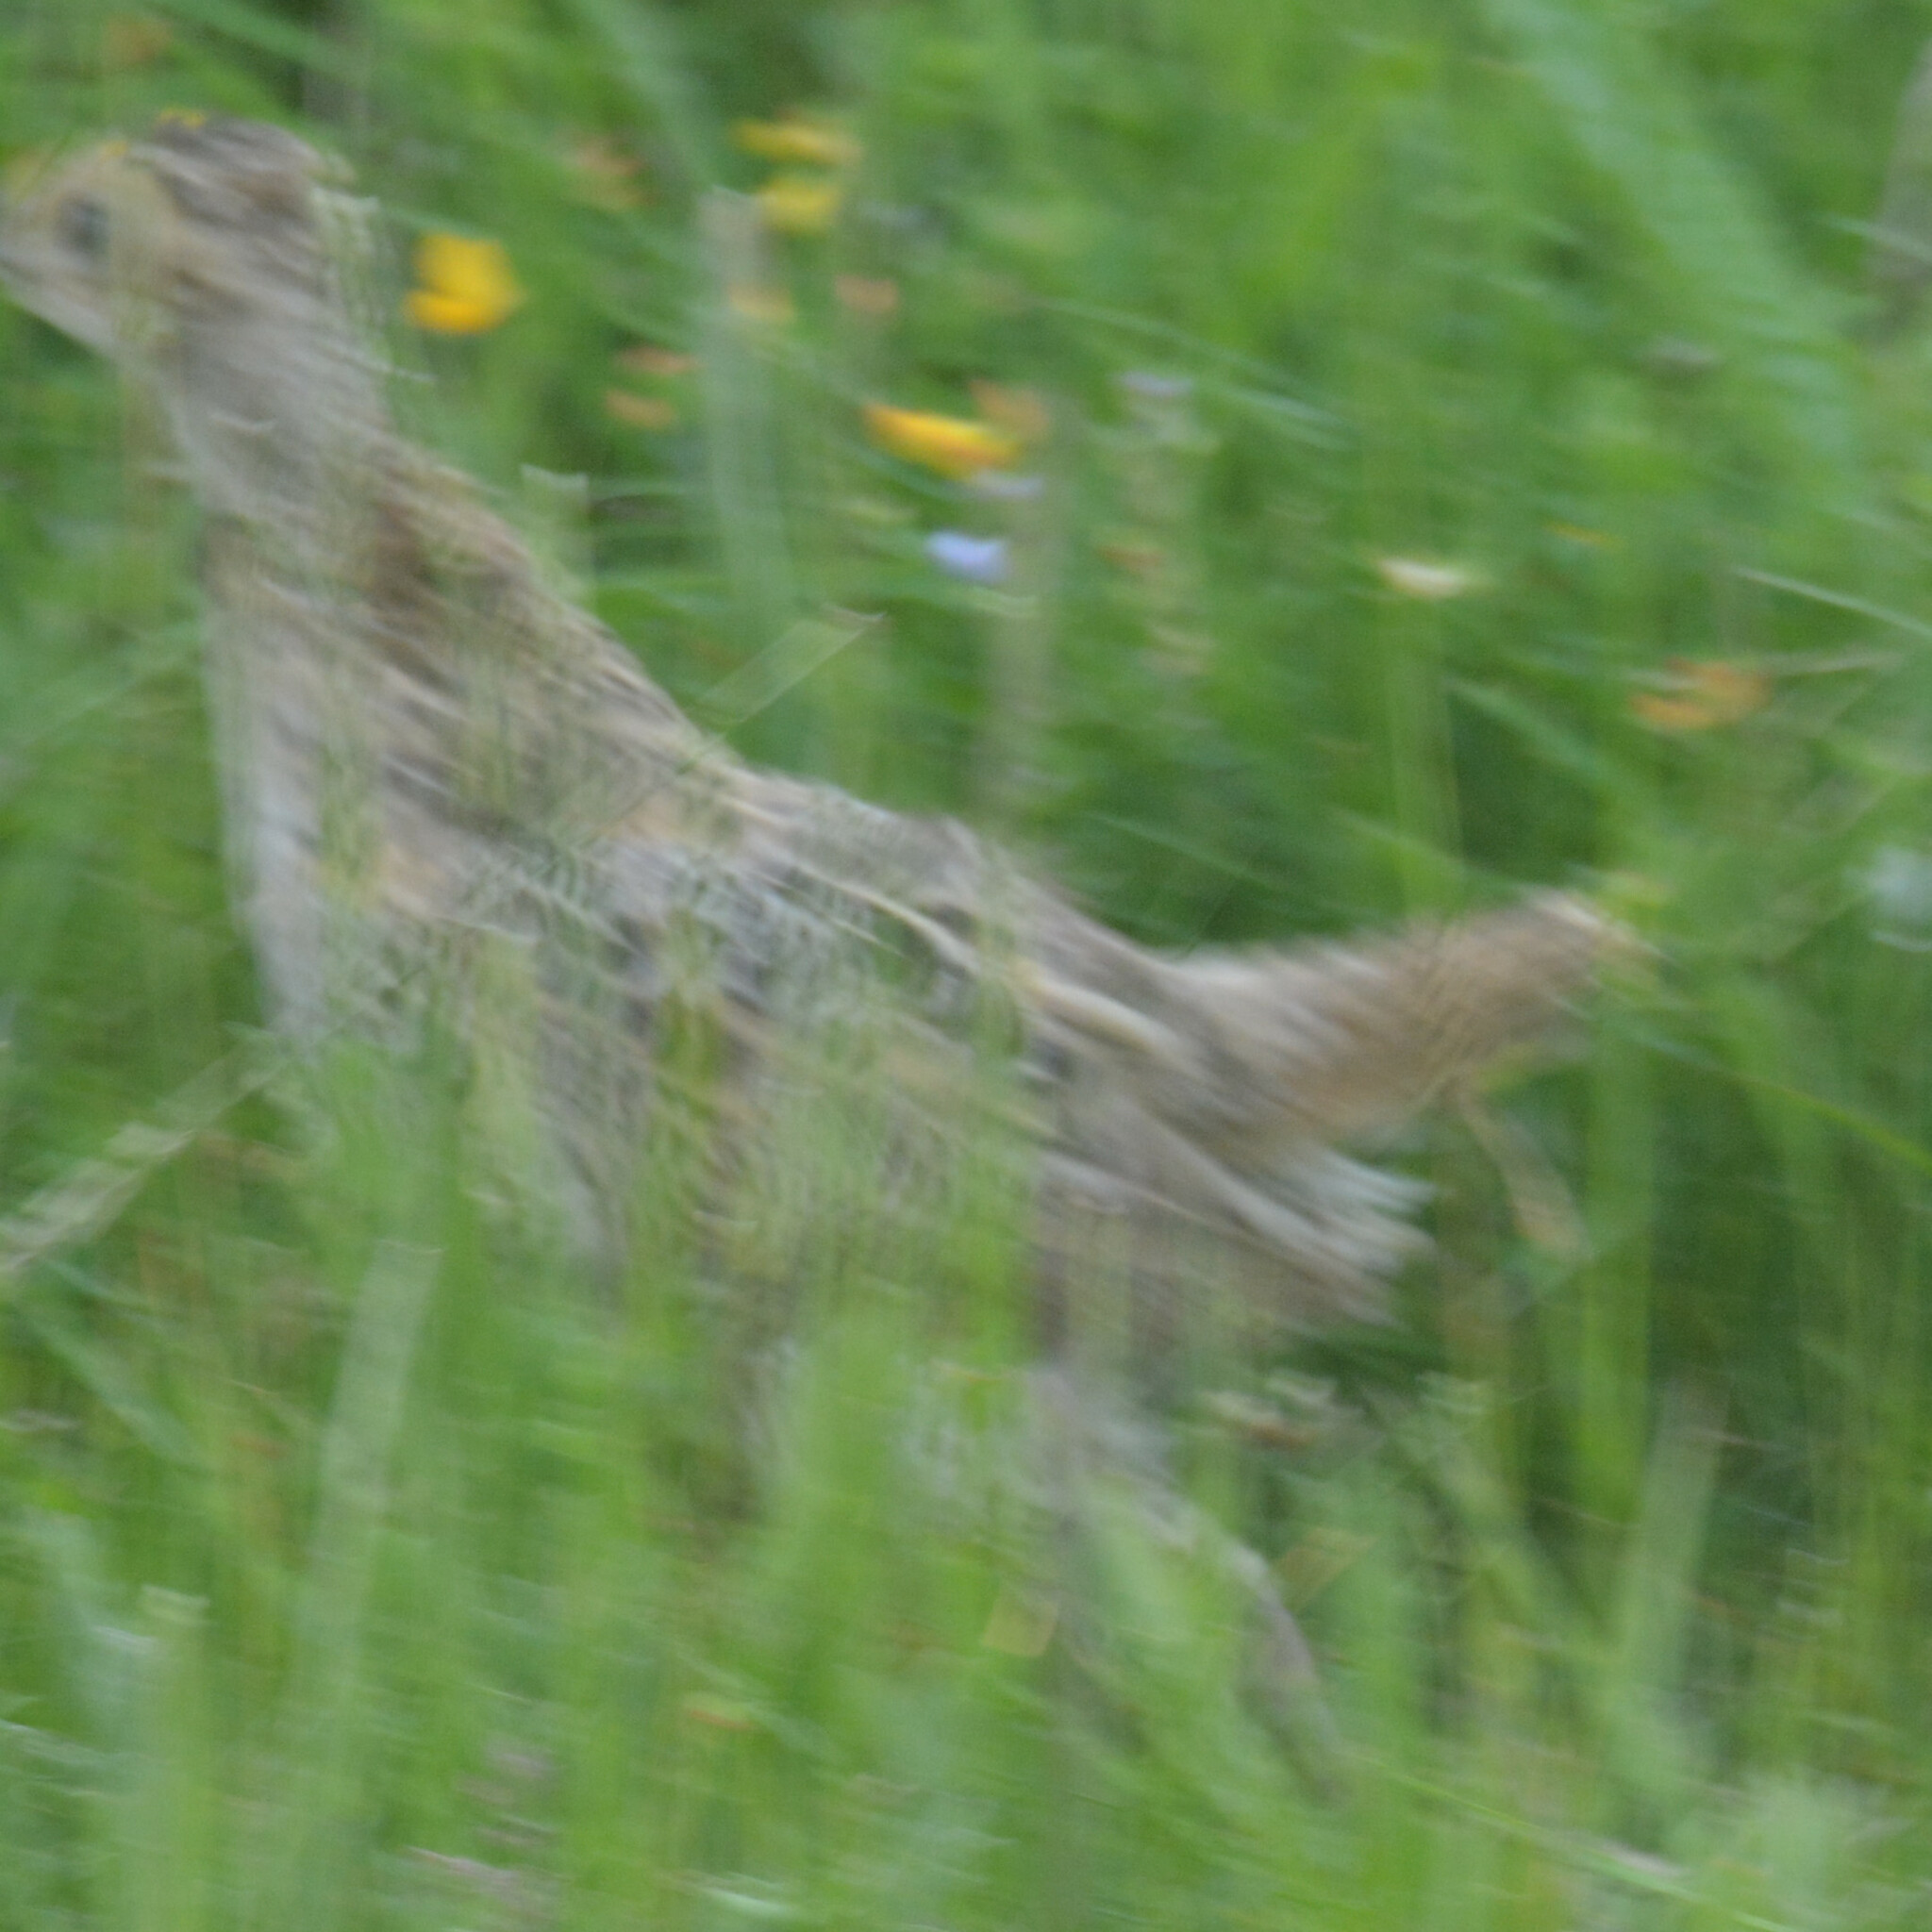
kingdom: Animalia
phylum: Chordata
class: Aves
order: Galliformes
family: Phasianidae
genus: Phasianus
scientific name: Phasianus colchicus
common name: Common pheasant
